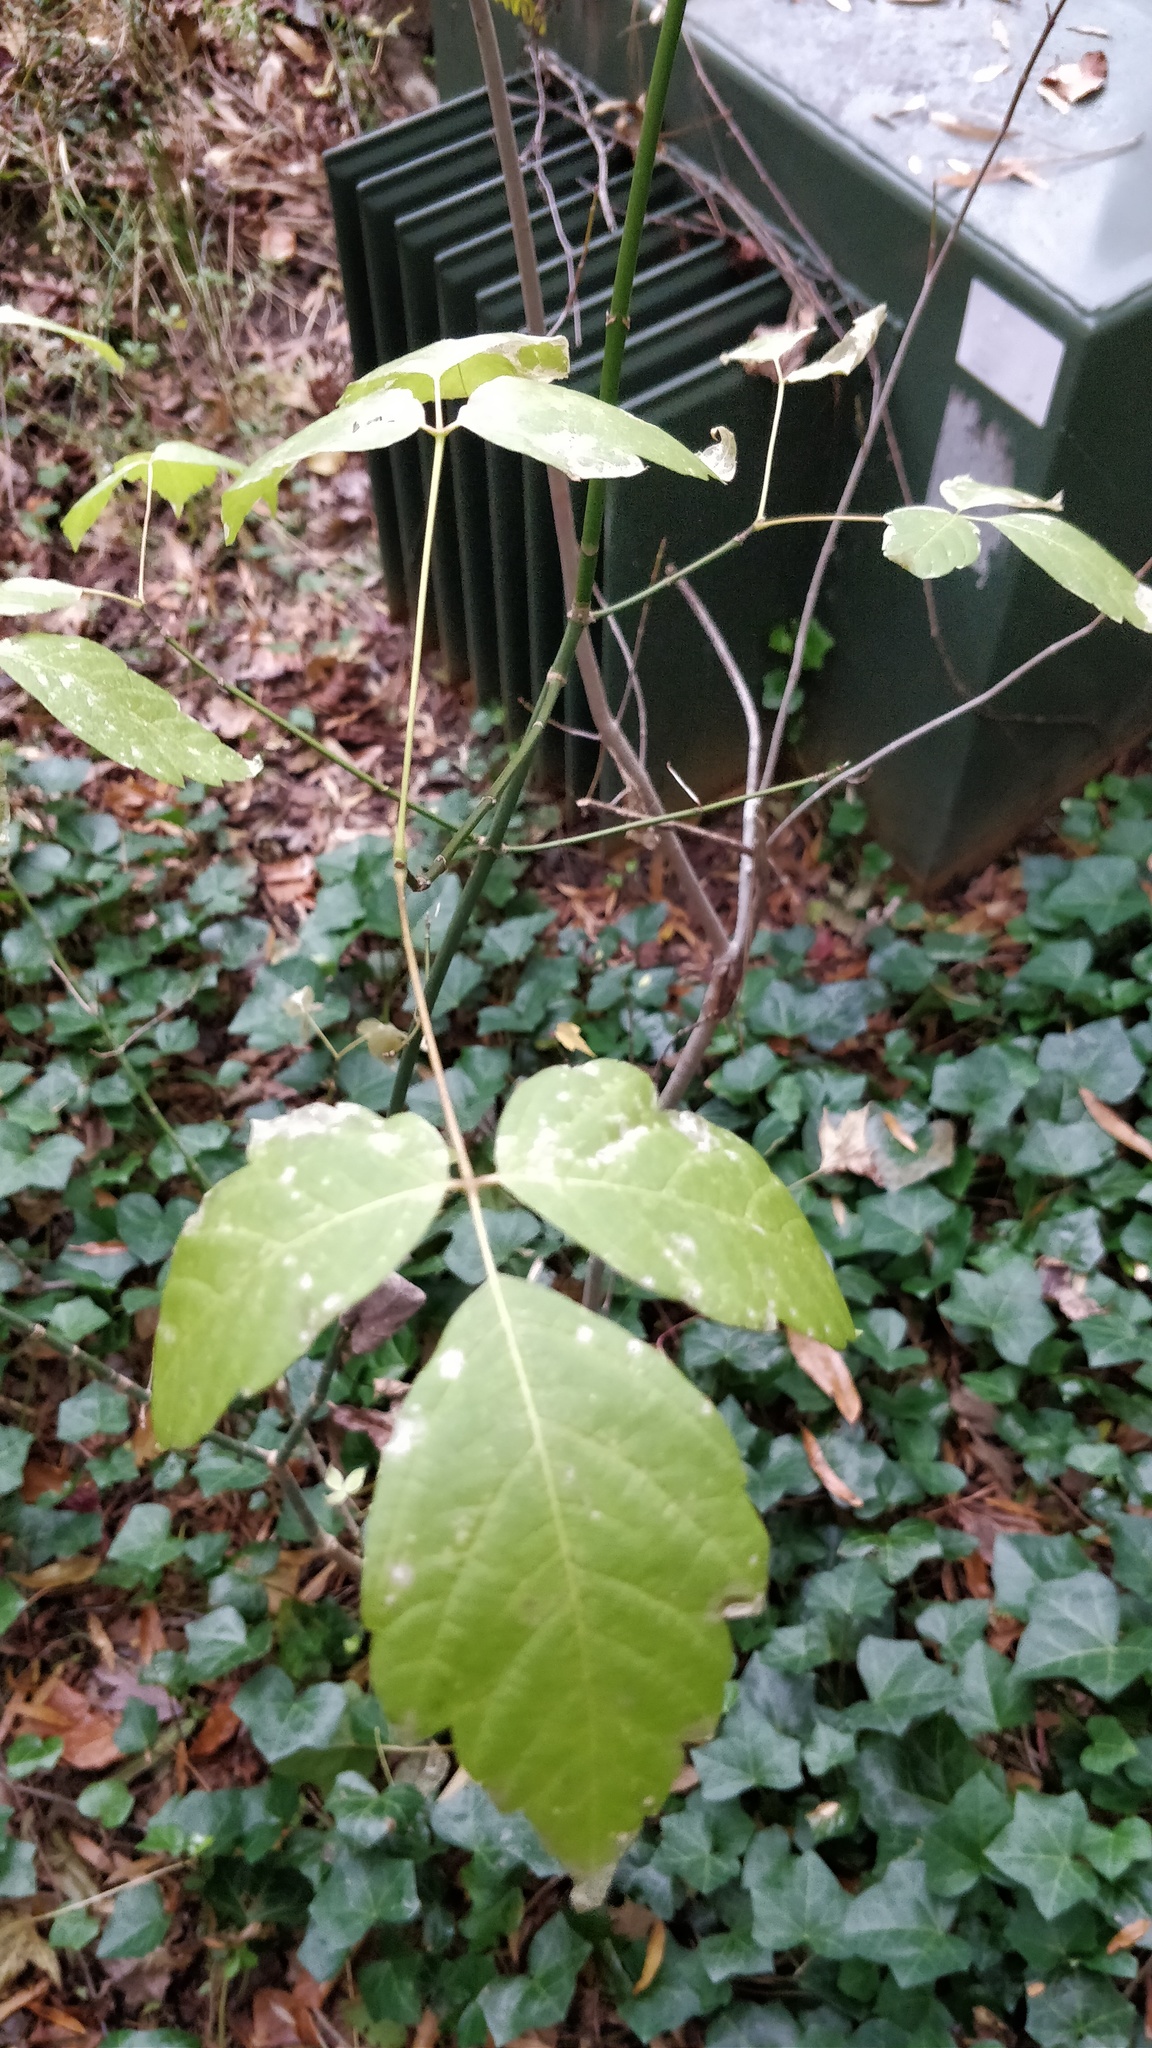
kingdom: Plantae
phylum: Tracheophyta
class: Magnoliopsida
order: Sapindales
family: Sapindaceae
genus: Acer
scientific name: Acer negundo
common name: Ashleaf maple
